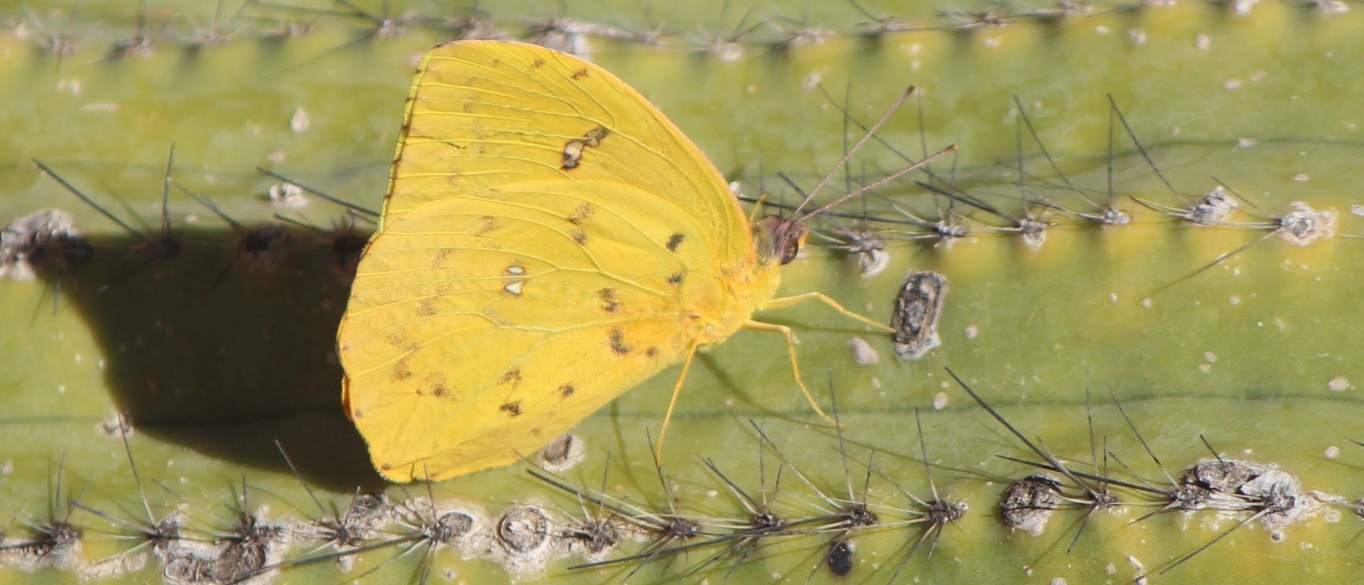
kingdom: Animalia
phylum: Arthropoda
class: Insecta
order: Lepidoptera
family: Pieridae
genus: Phoebis
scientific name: Phoebis sennae
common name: Cloudless sulphur
